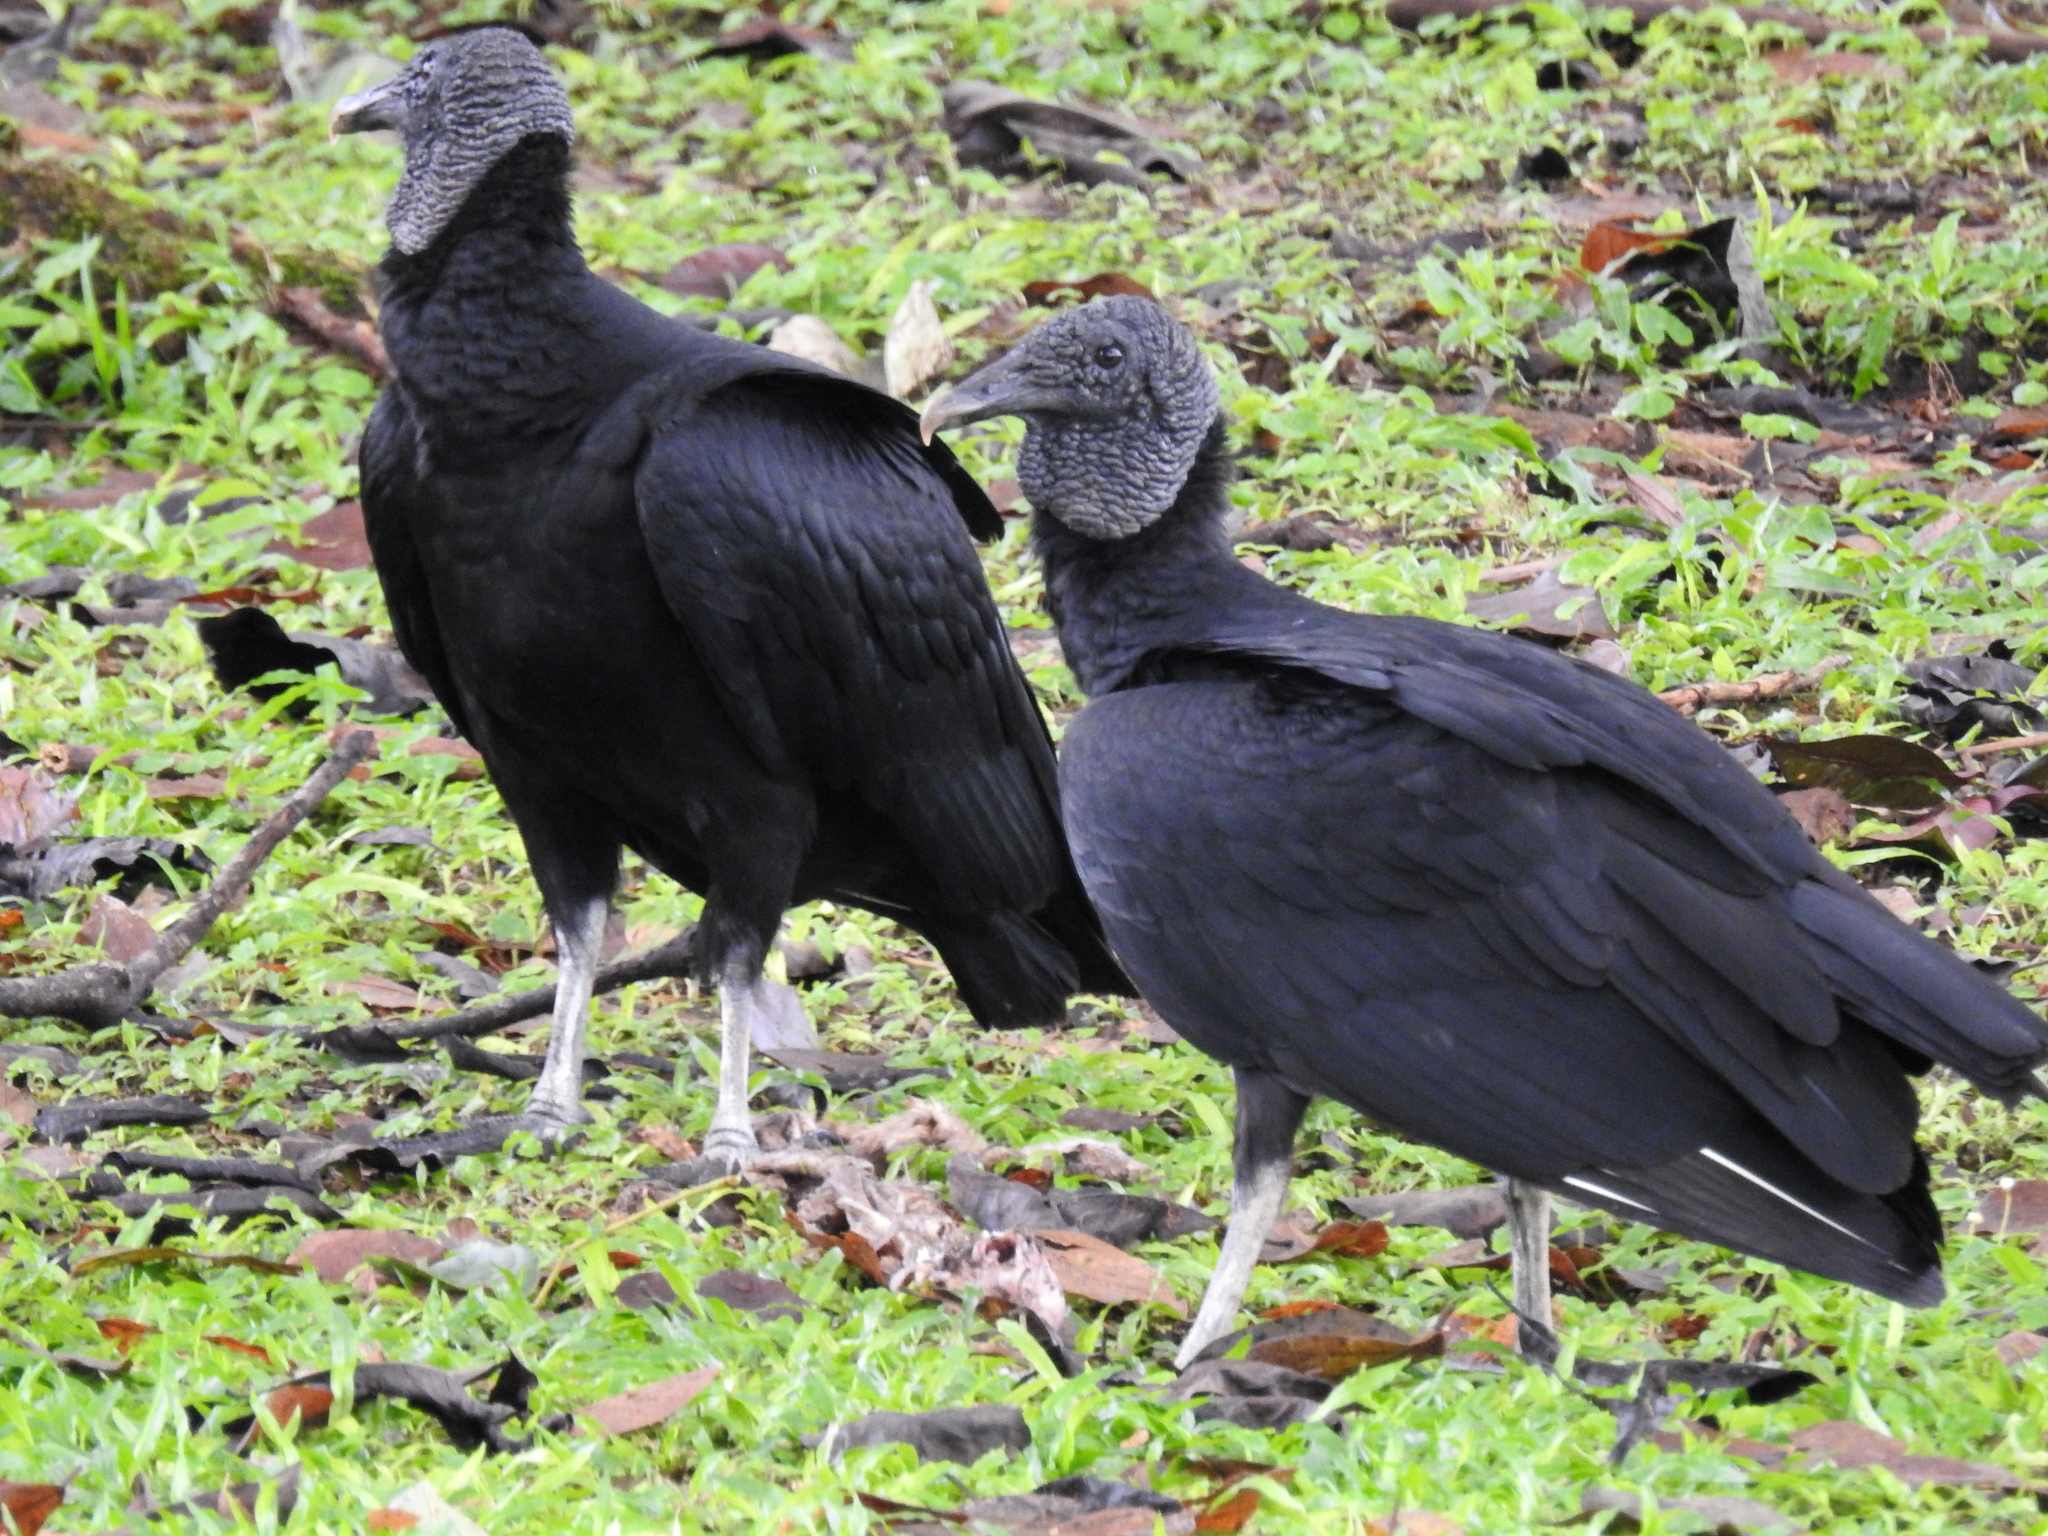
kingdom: Animalia
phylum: Chordata
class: Aves
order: Accipitriformes
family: Cathartidae
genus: Coragyps
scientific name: Coragyps atratus
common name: Black vulture
